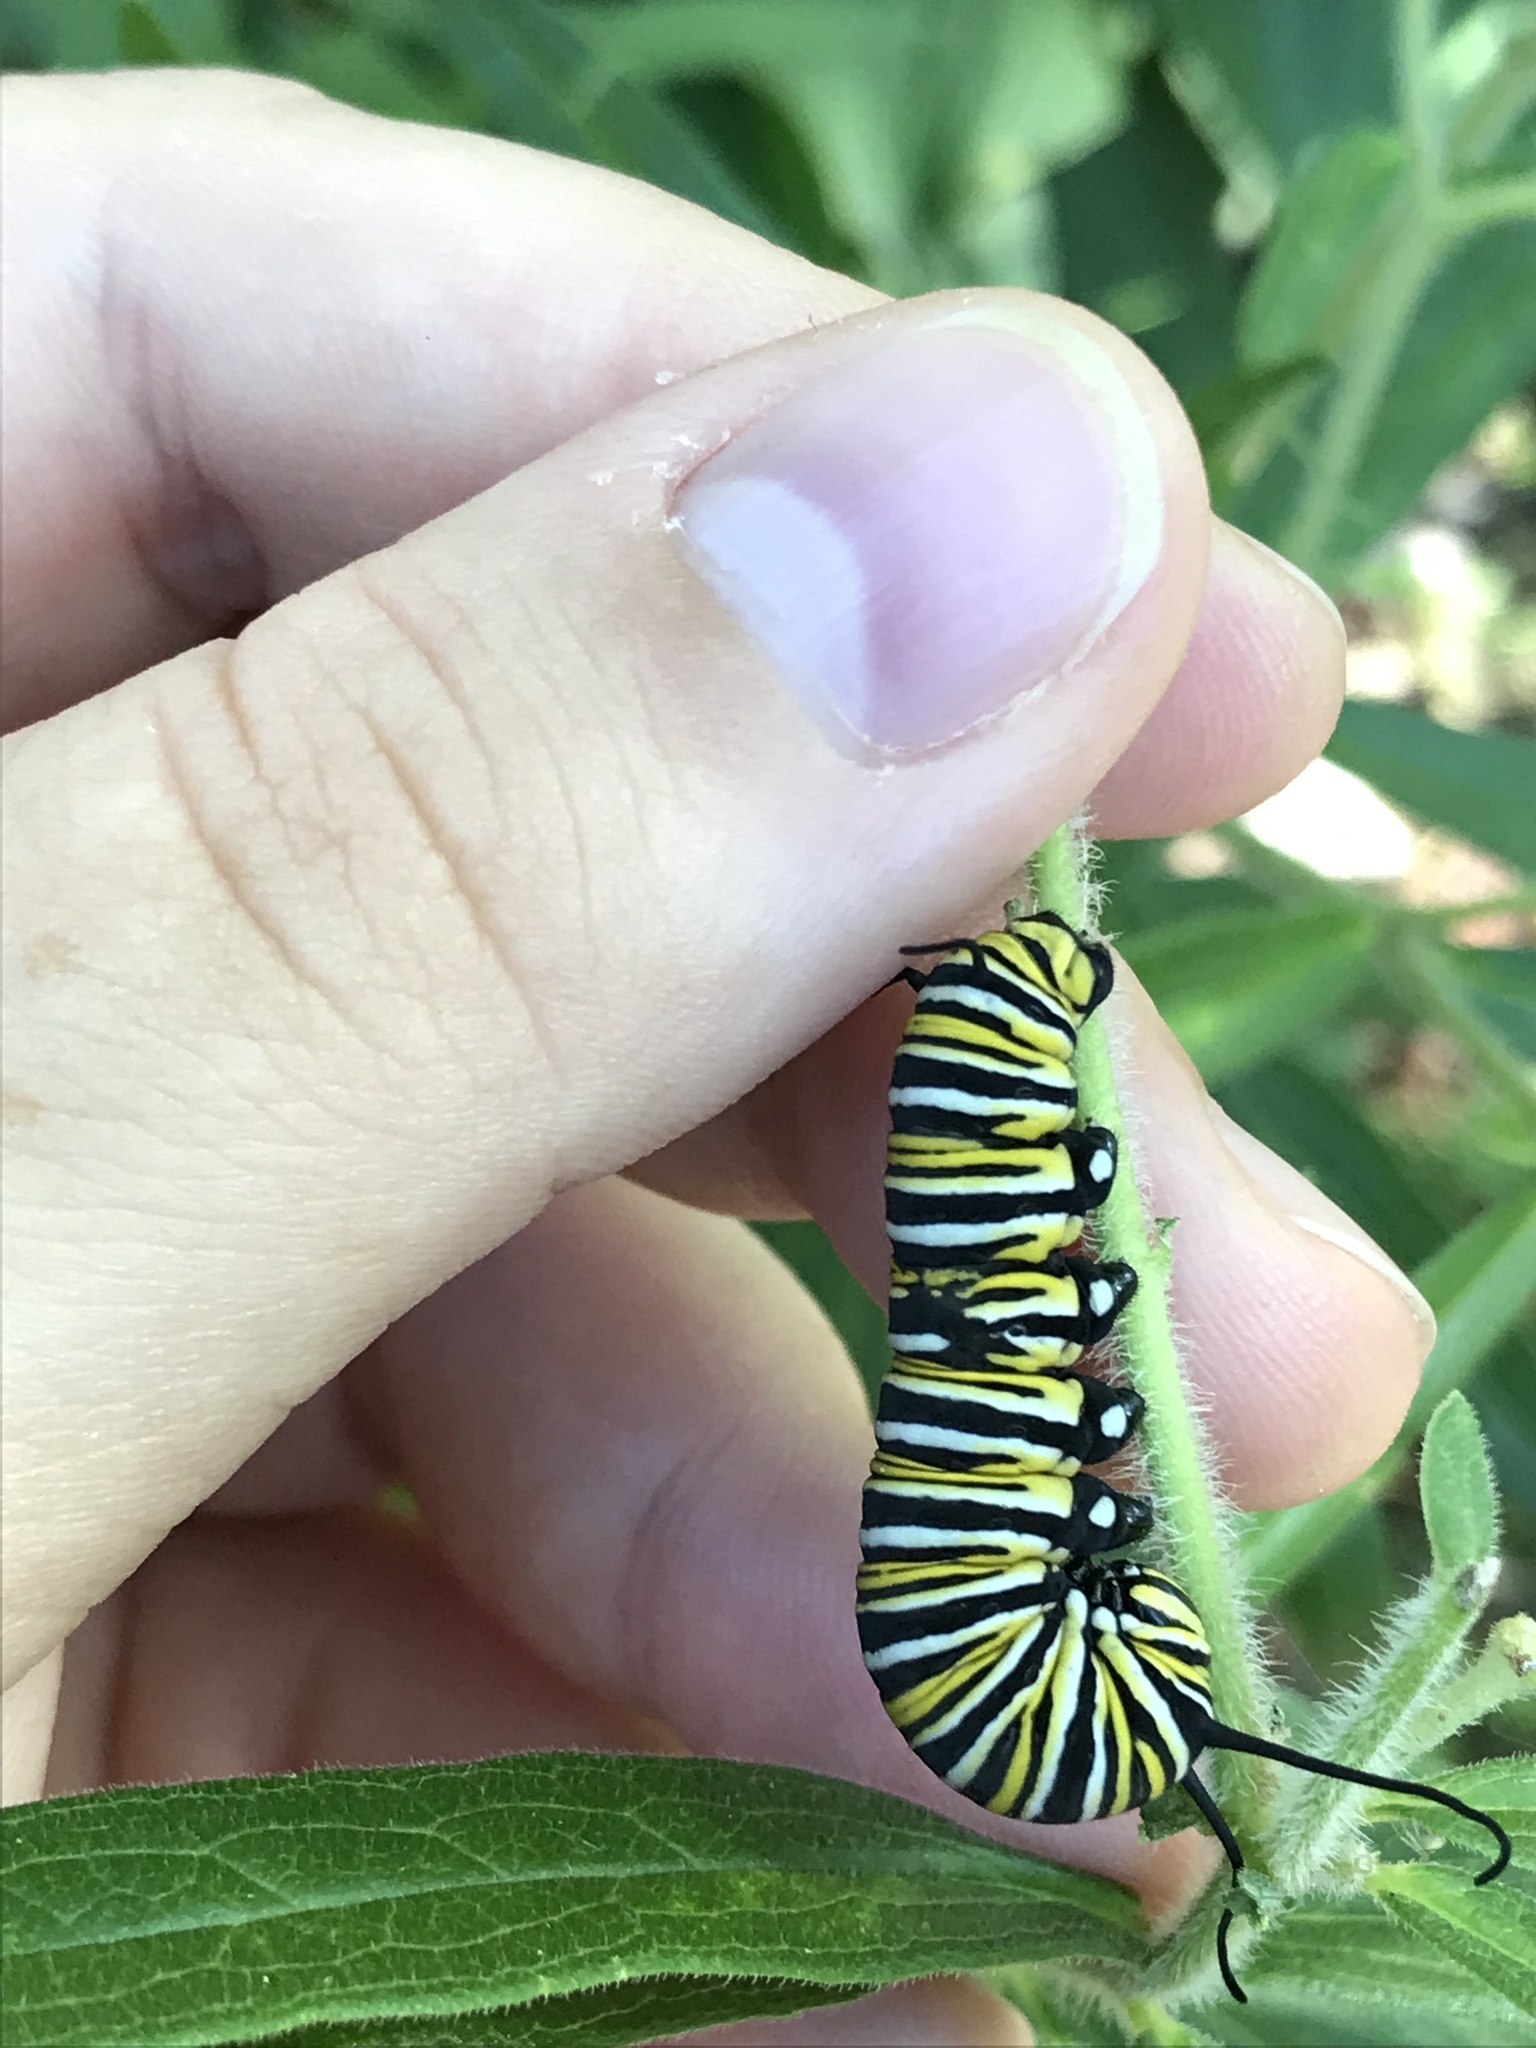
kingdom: Animalia
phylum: Arthropoda
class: Insecta
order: Lepidoptera
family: Nymphalidae
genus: Danaus
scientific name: Danaus plexippus
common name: Monarch
